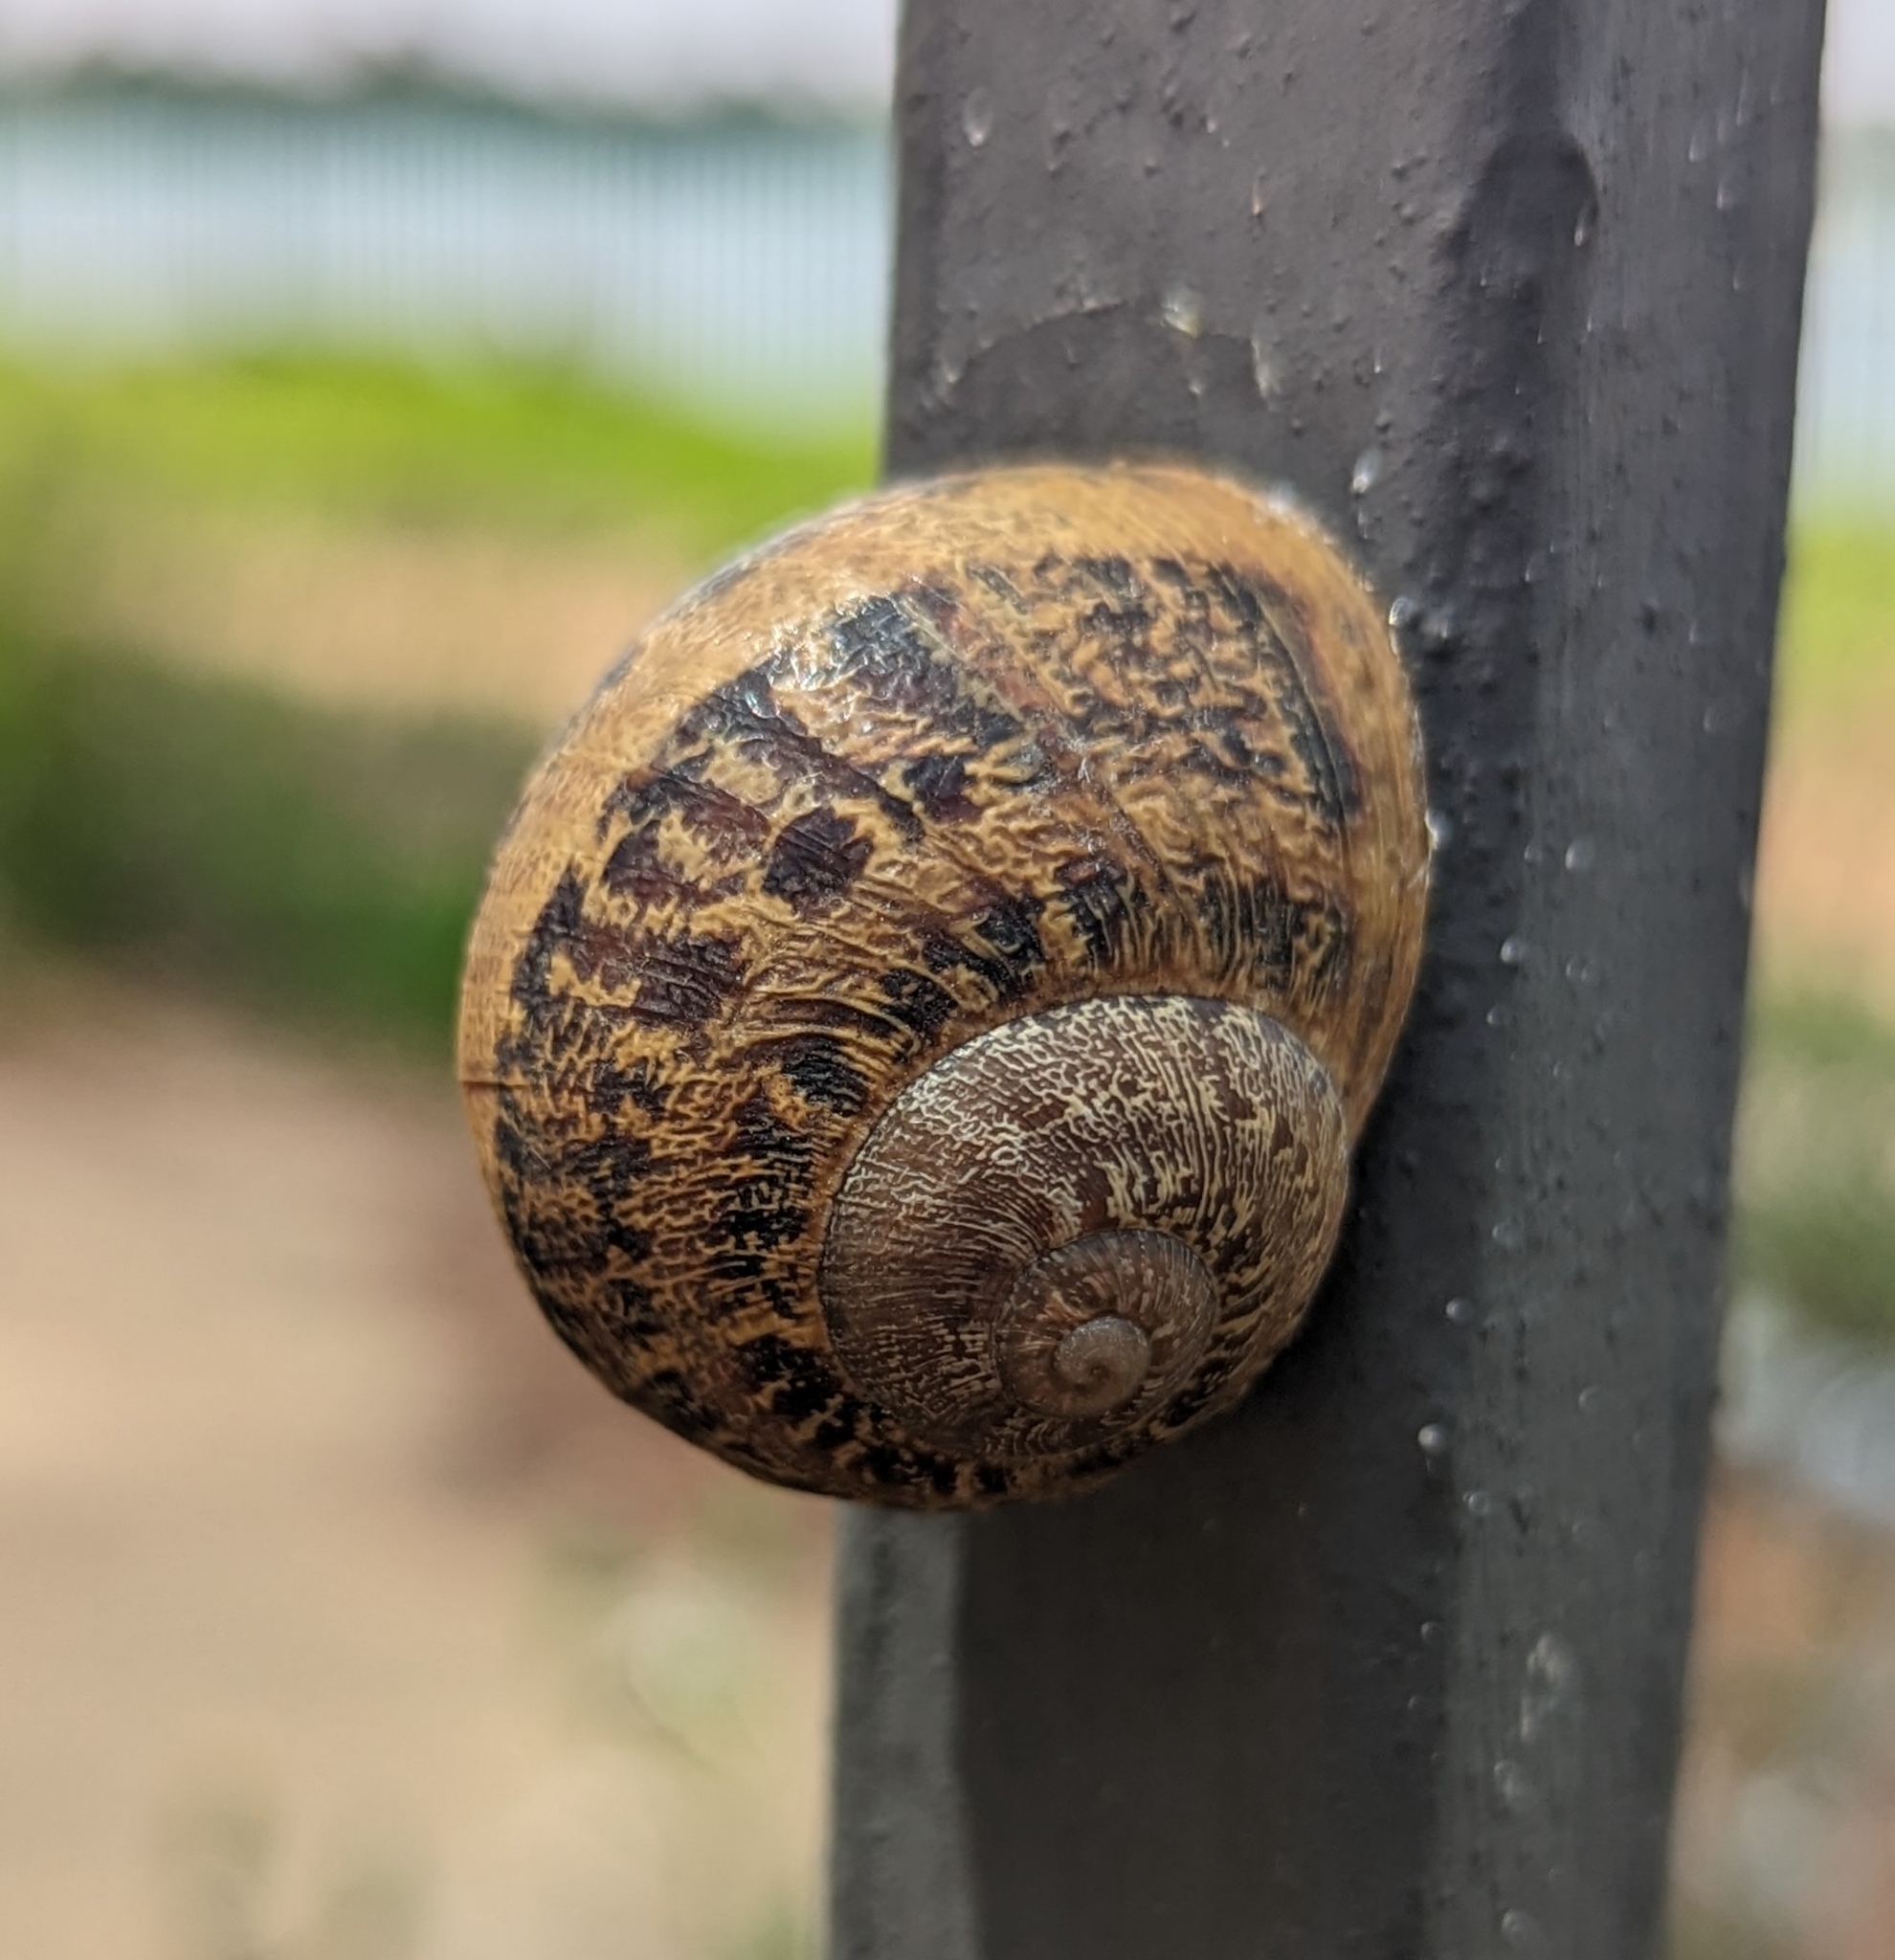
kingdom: Animalia
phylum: Mollusca
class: Gastropoda
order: Stylommatophora
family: Helicidae
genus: Cornu
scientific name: Cornu aspersum
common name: Brown garden snail
